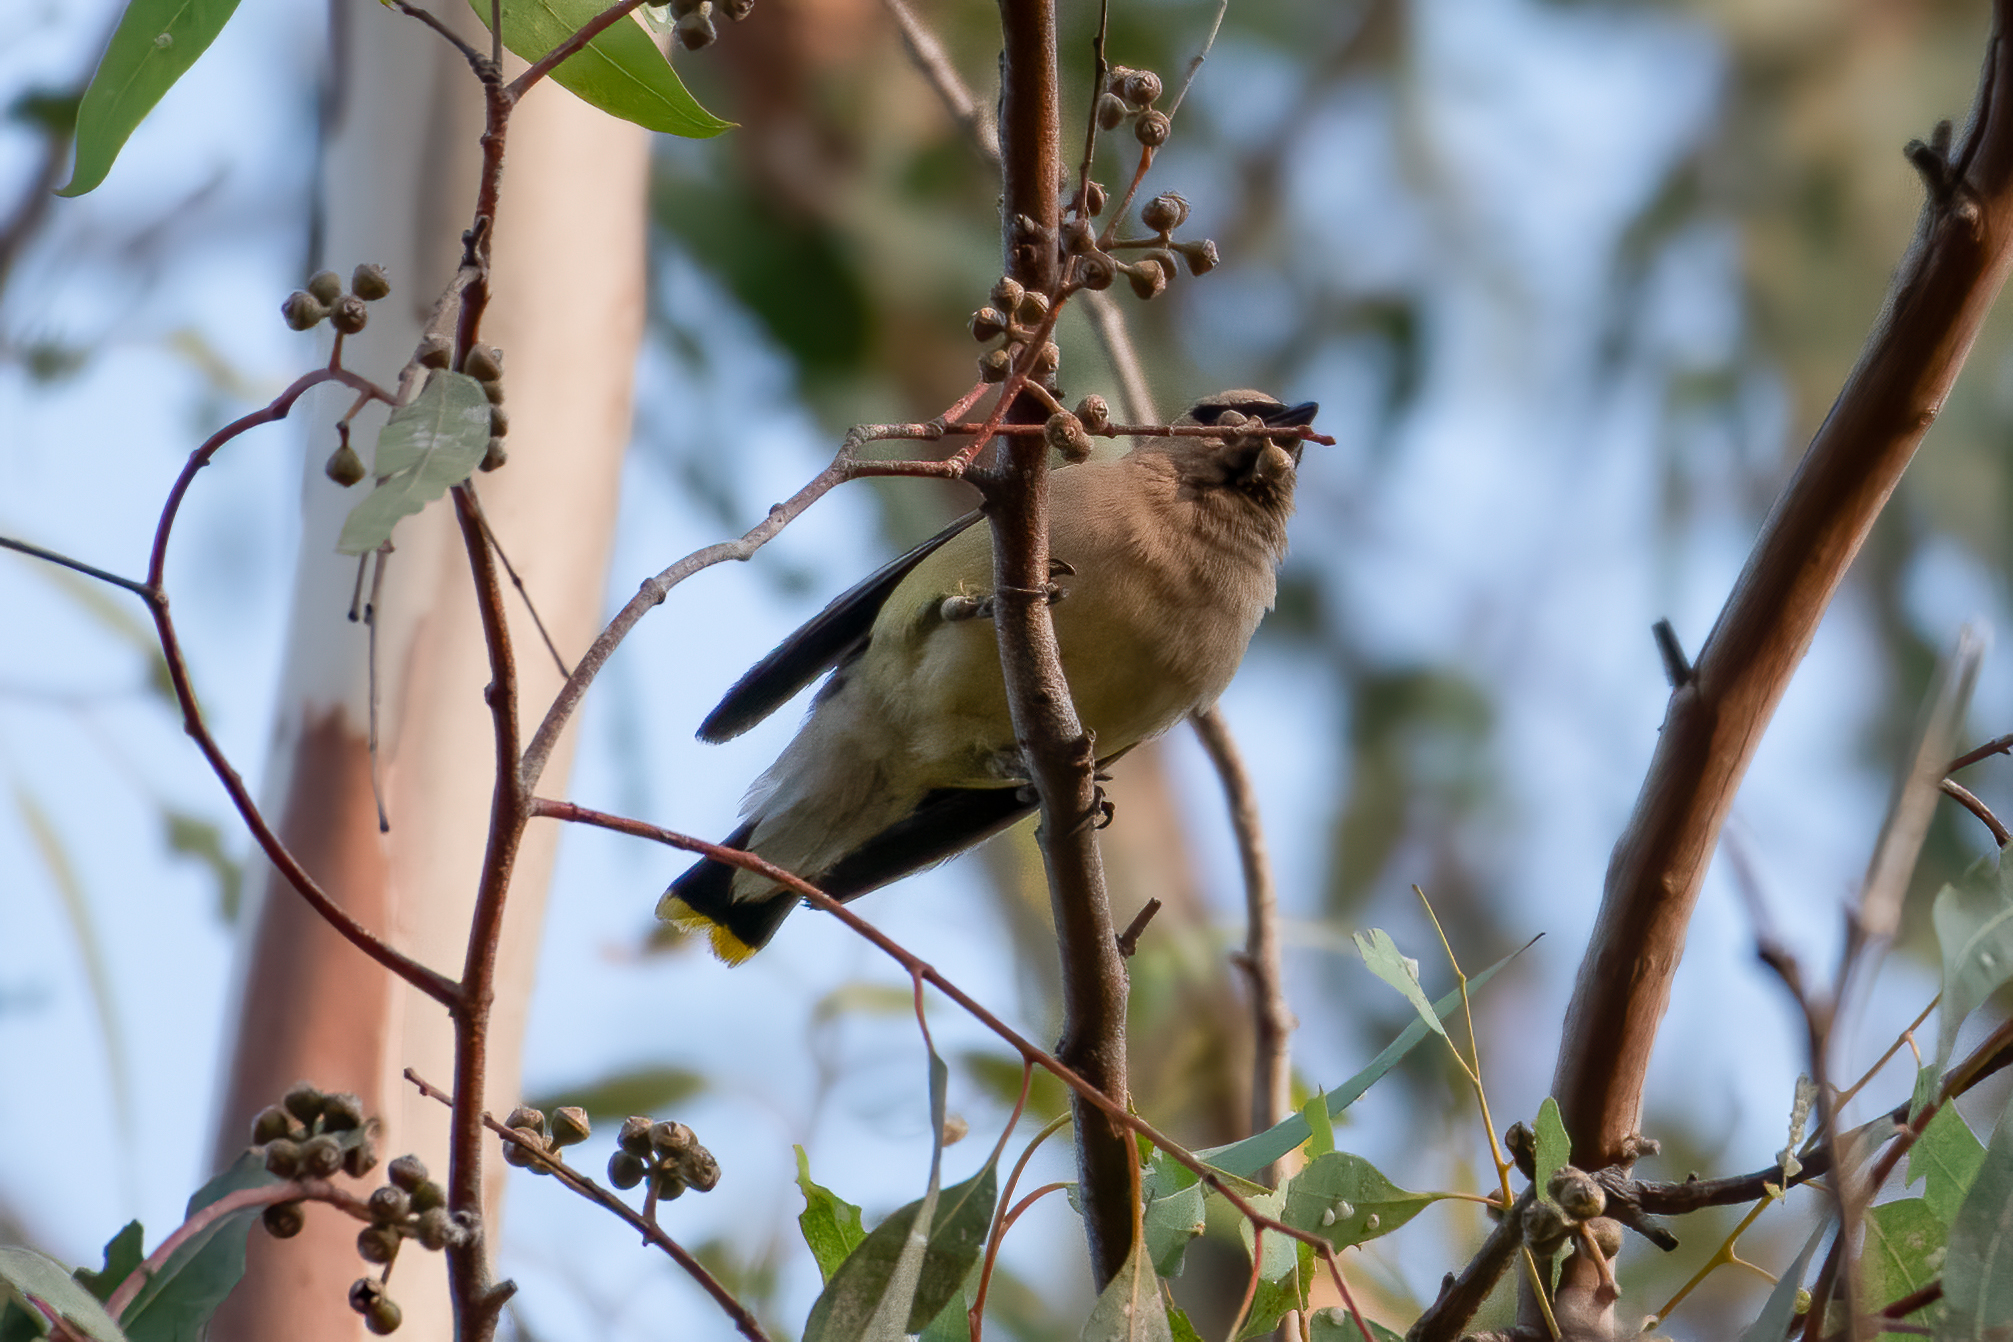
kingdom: Animalia
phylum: Chordata
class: Aves
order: Passeriformes
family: Bombycillidae
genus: Bombycilla
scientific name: Bombycilla cedrorum
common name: Cedar waxwing
